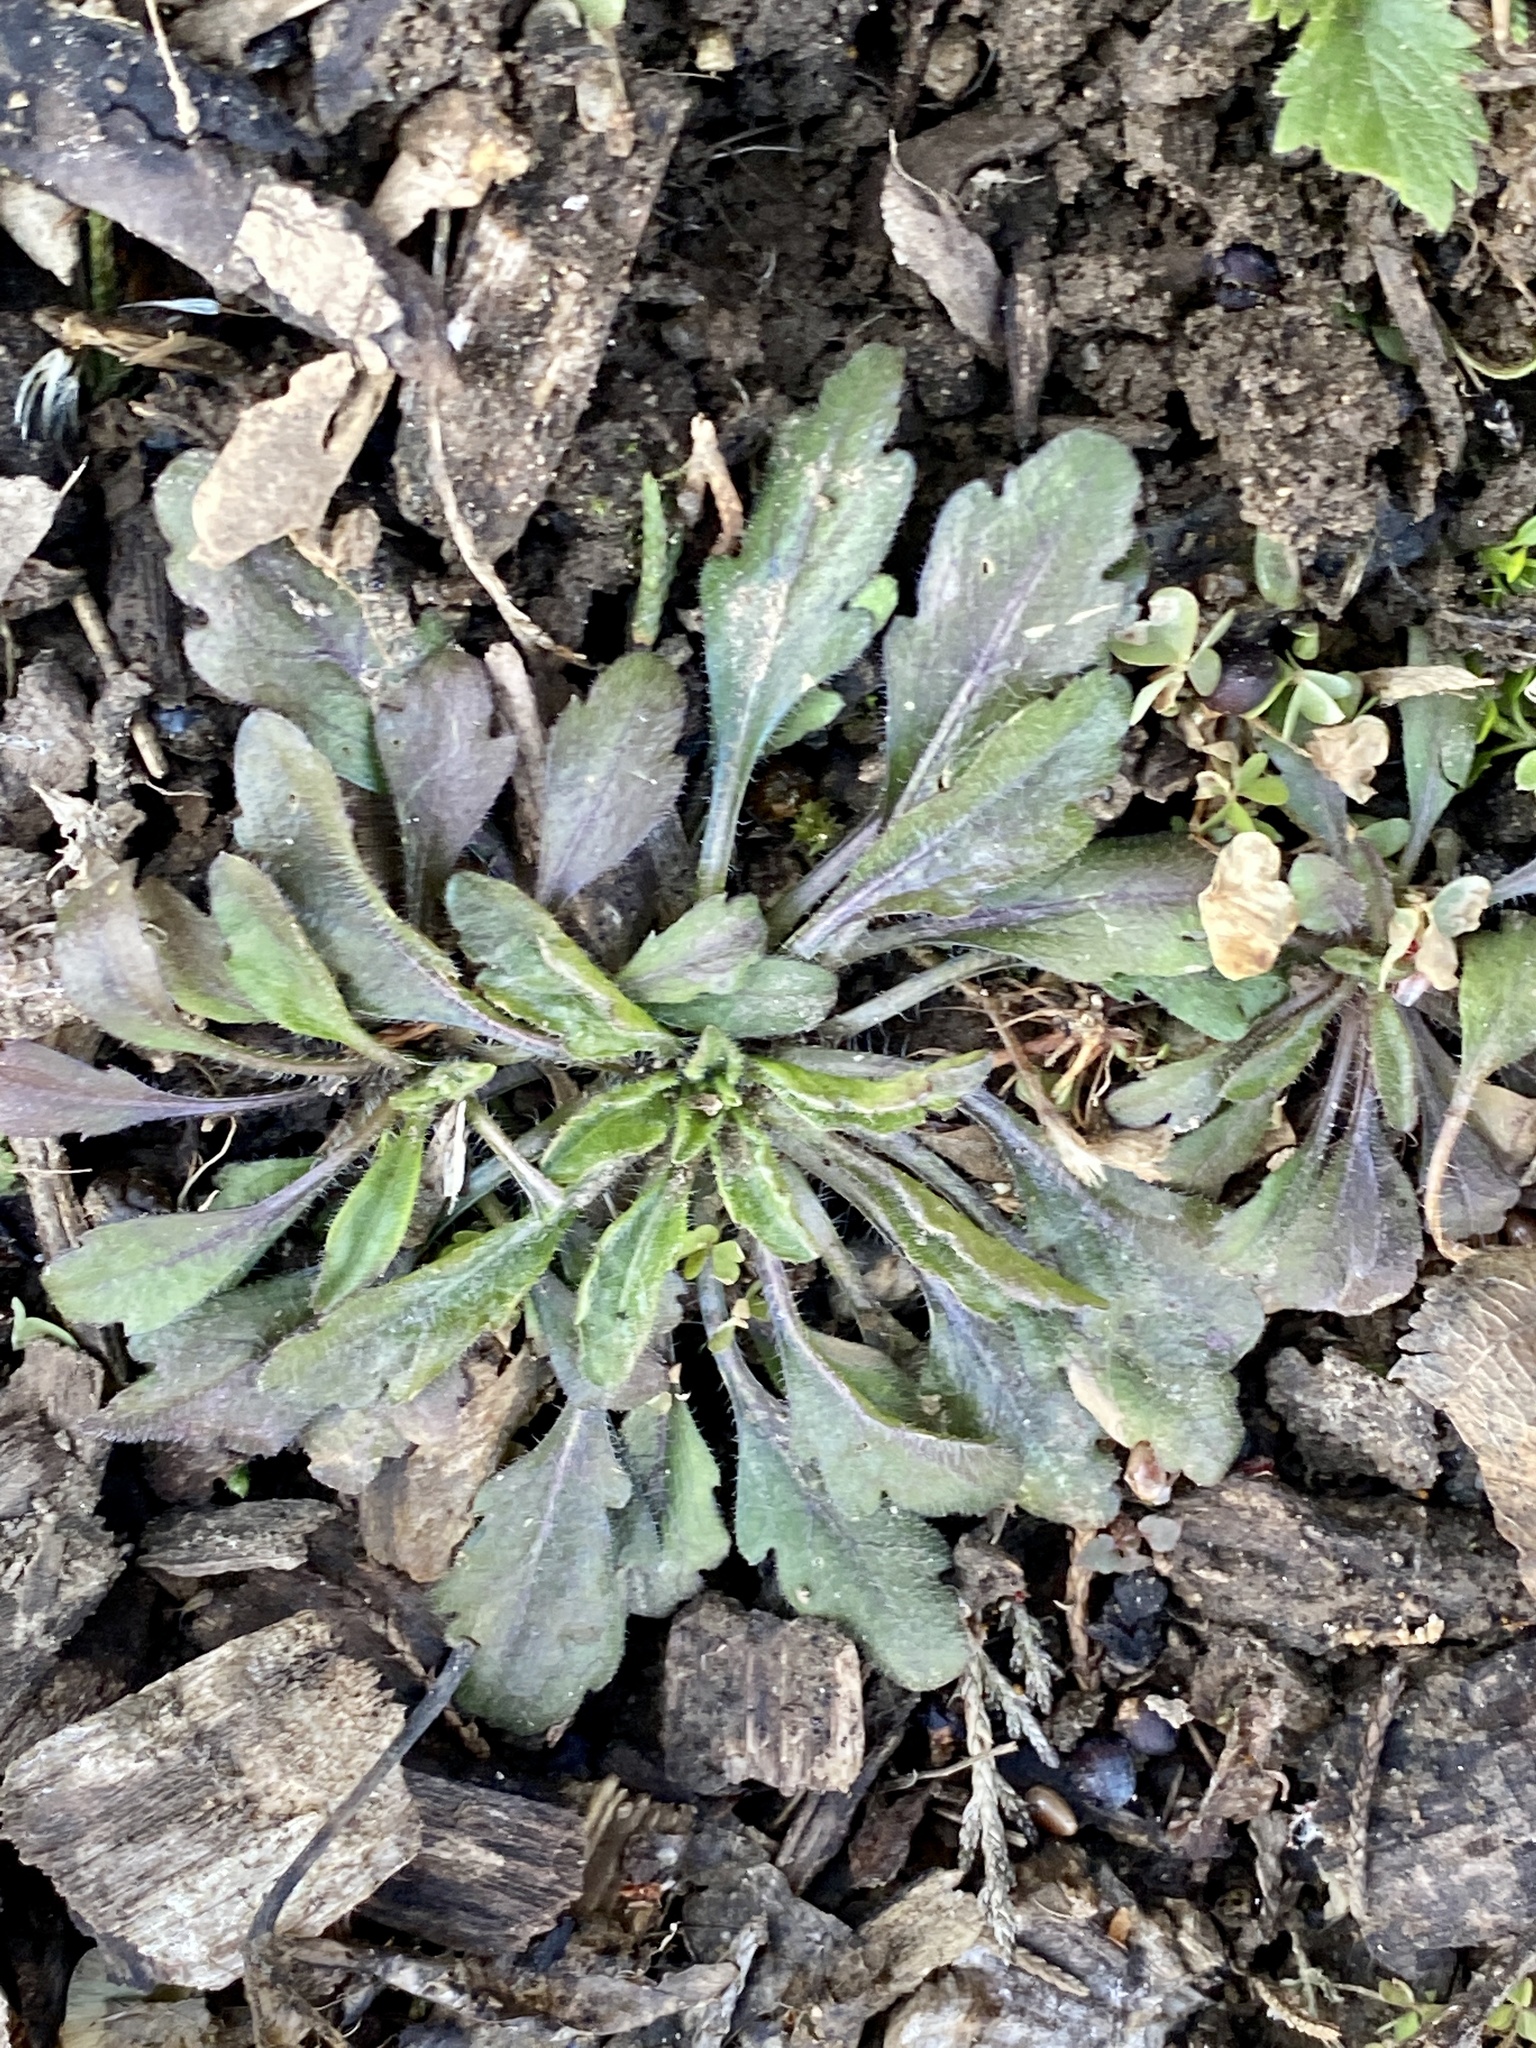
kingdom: Plantae
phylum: Tracheophyta
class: Magnoliopsida
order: Asterales
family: Asteraceae
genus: Erigeron
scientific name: Erigeron canadensis
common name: Canadian fleabane
